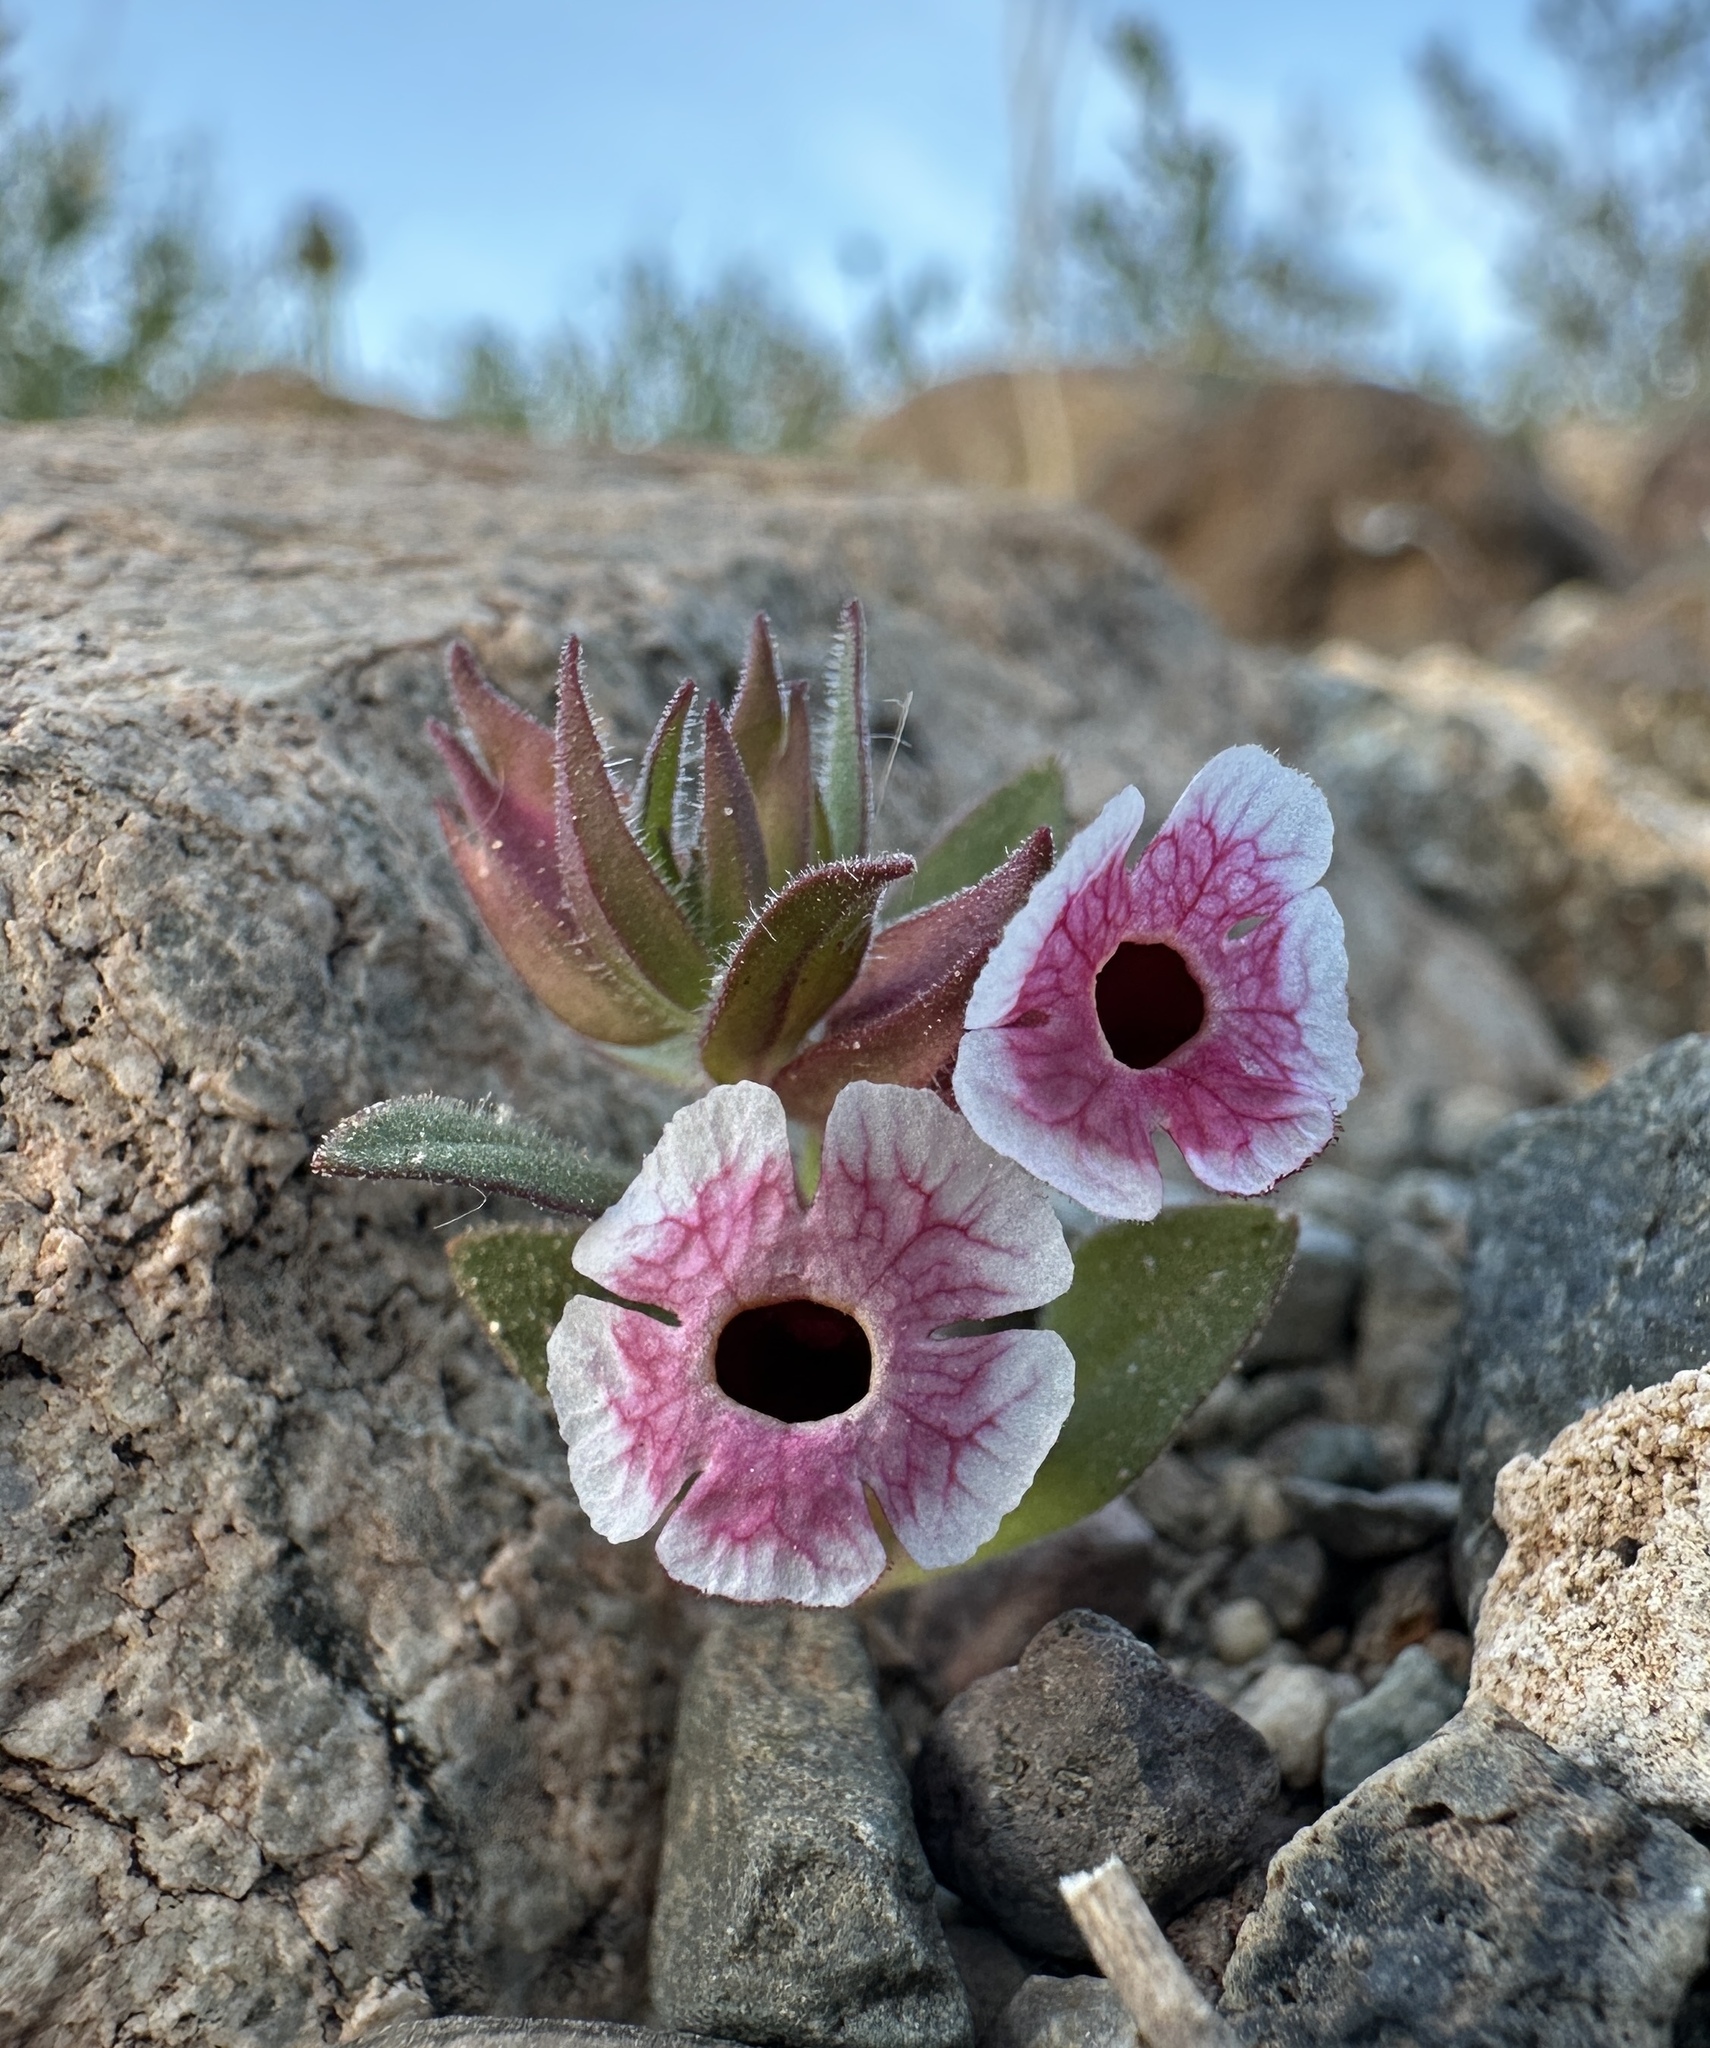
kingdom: Plantae
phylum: Tracheophyta
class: Magnoliopsida
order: Lamiales
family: Phrymaceae
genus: Diplacus
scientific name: Diplacus mohavensis
